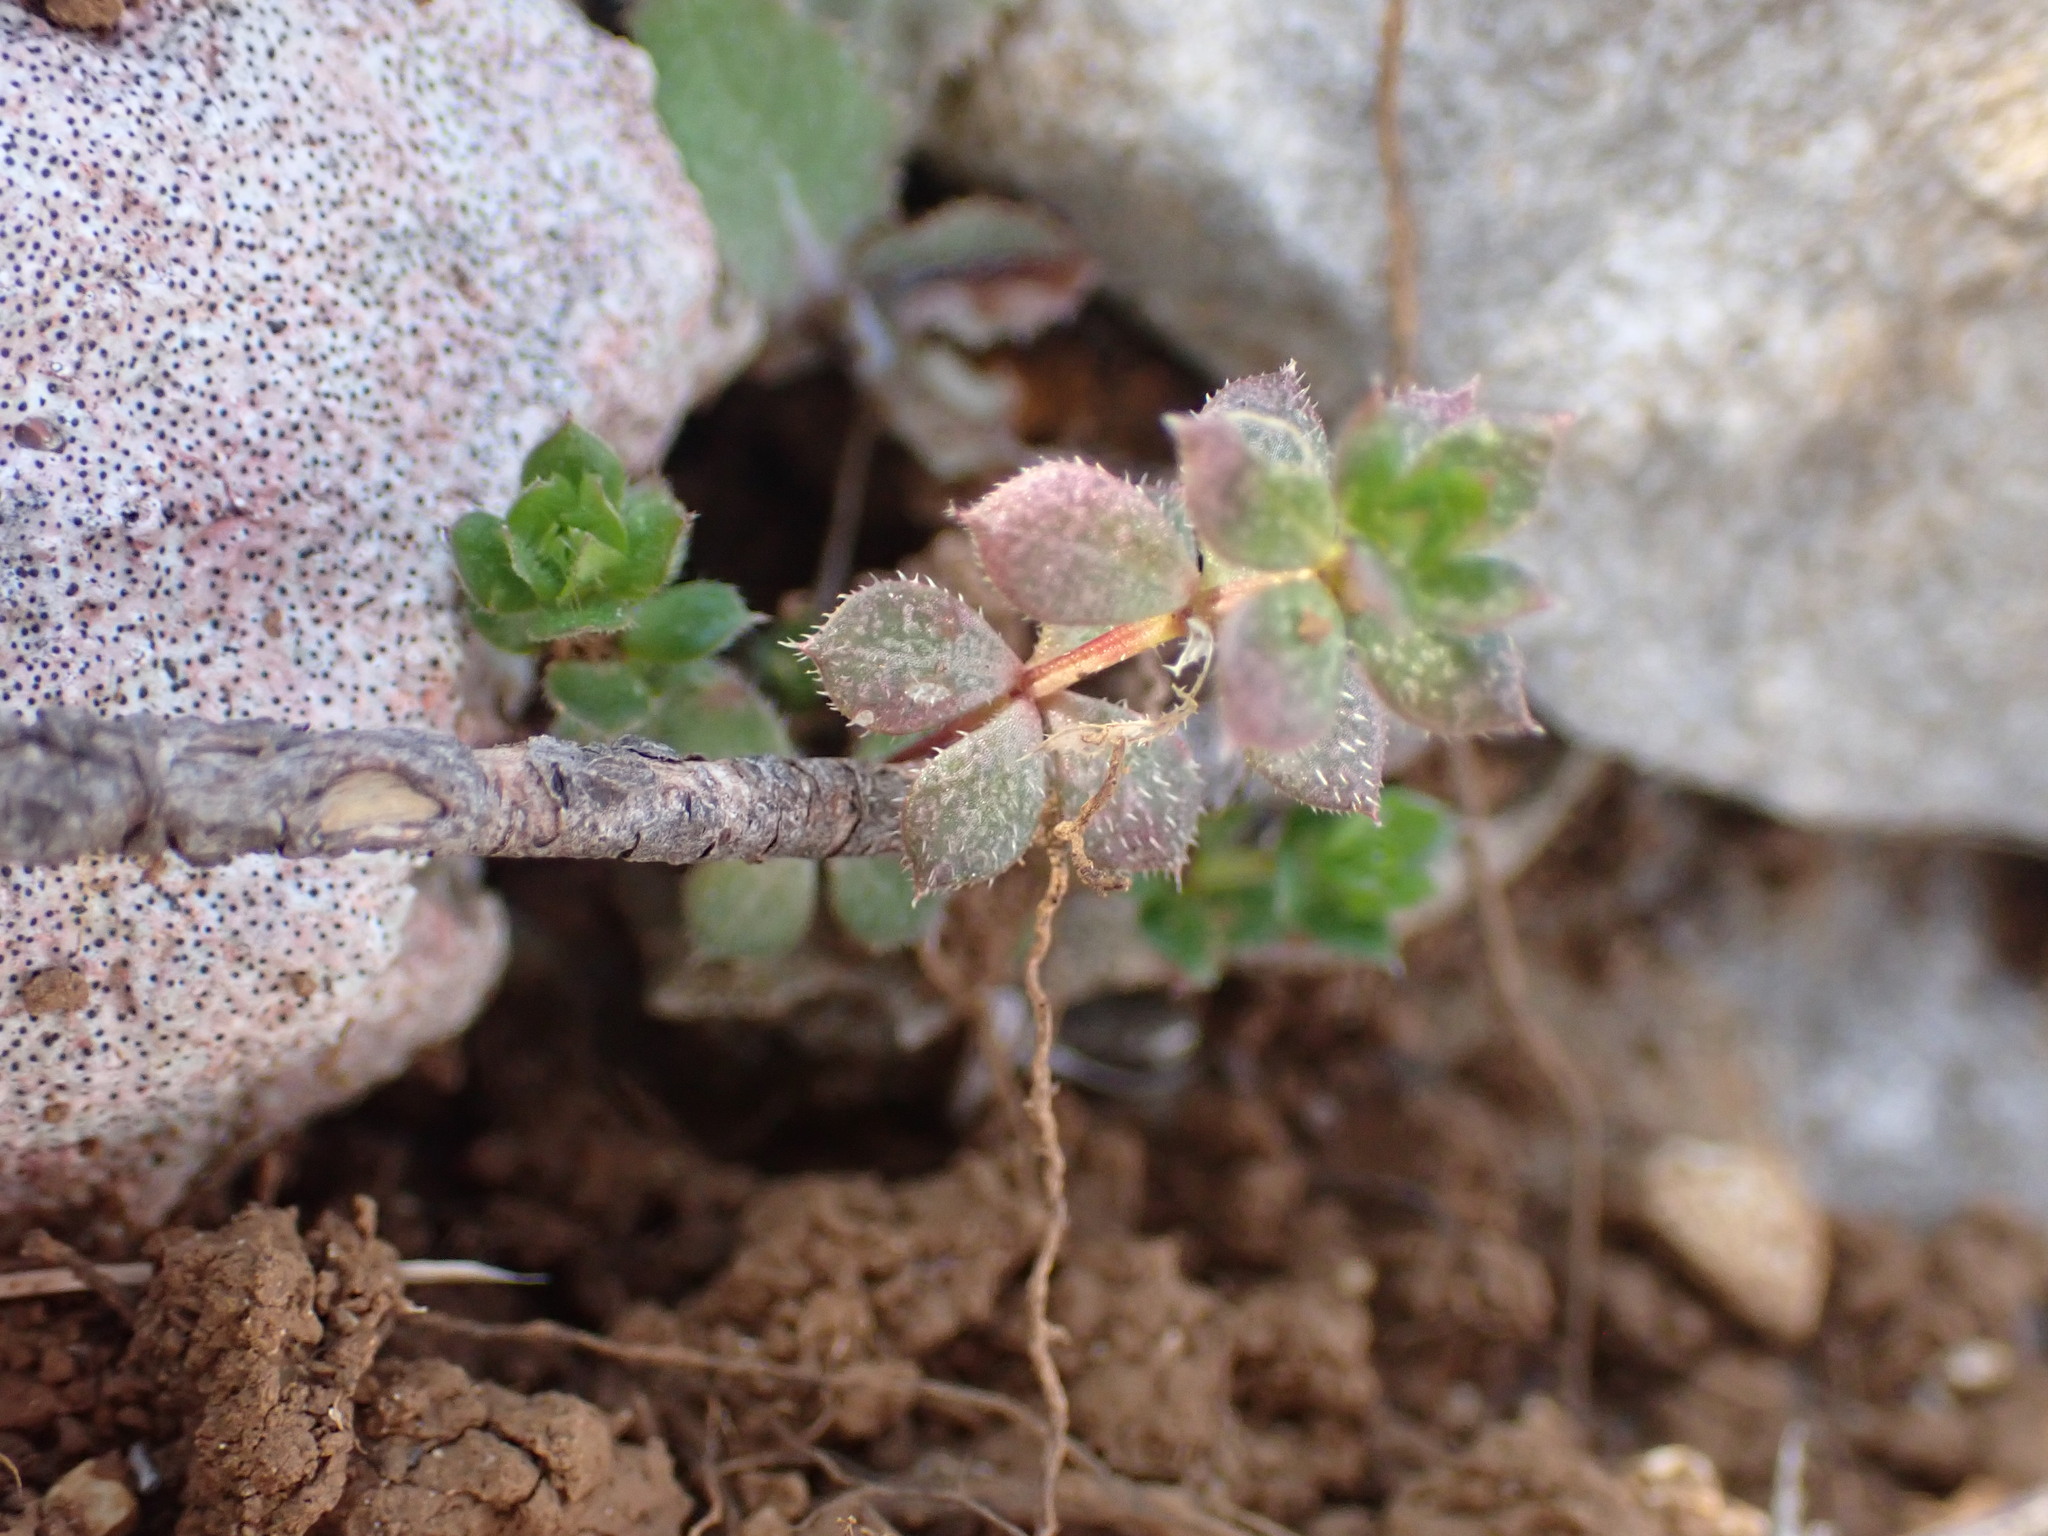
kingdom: Plantae
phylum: Tracheophyta
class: Magnoliopsida
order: Gentianales
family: Rubiaceae
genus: Sherardia
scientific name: Sherardia arvensis
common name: Field madder
